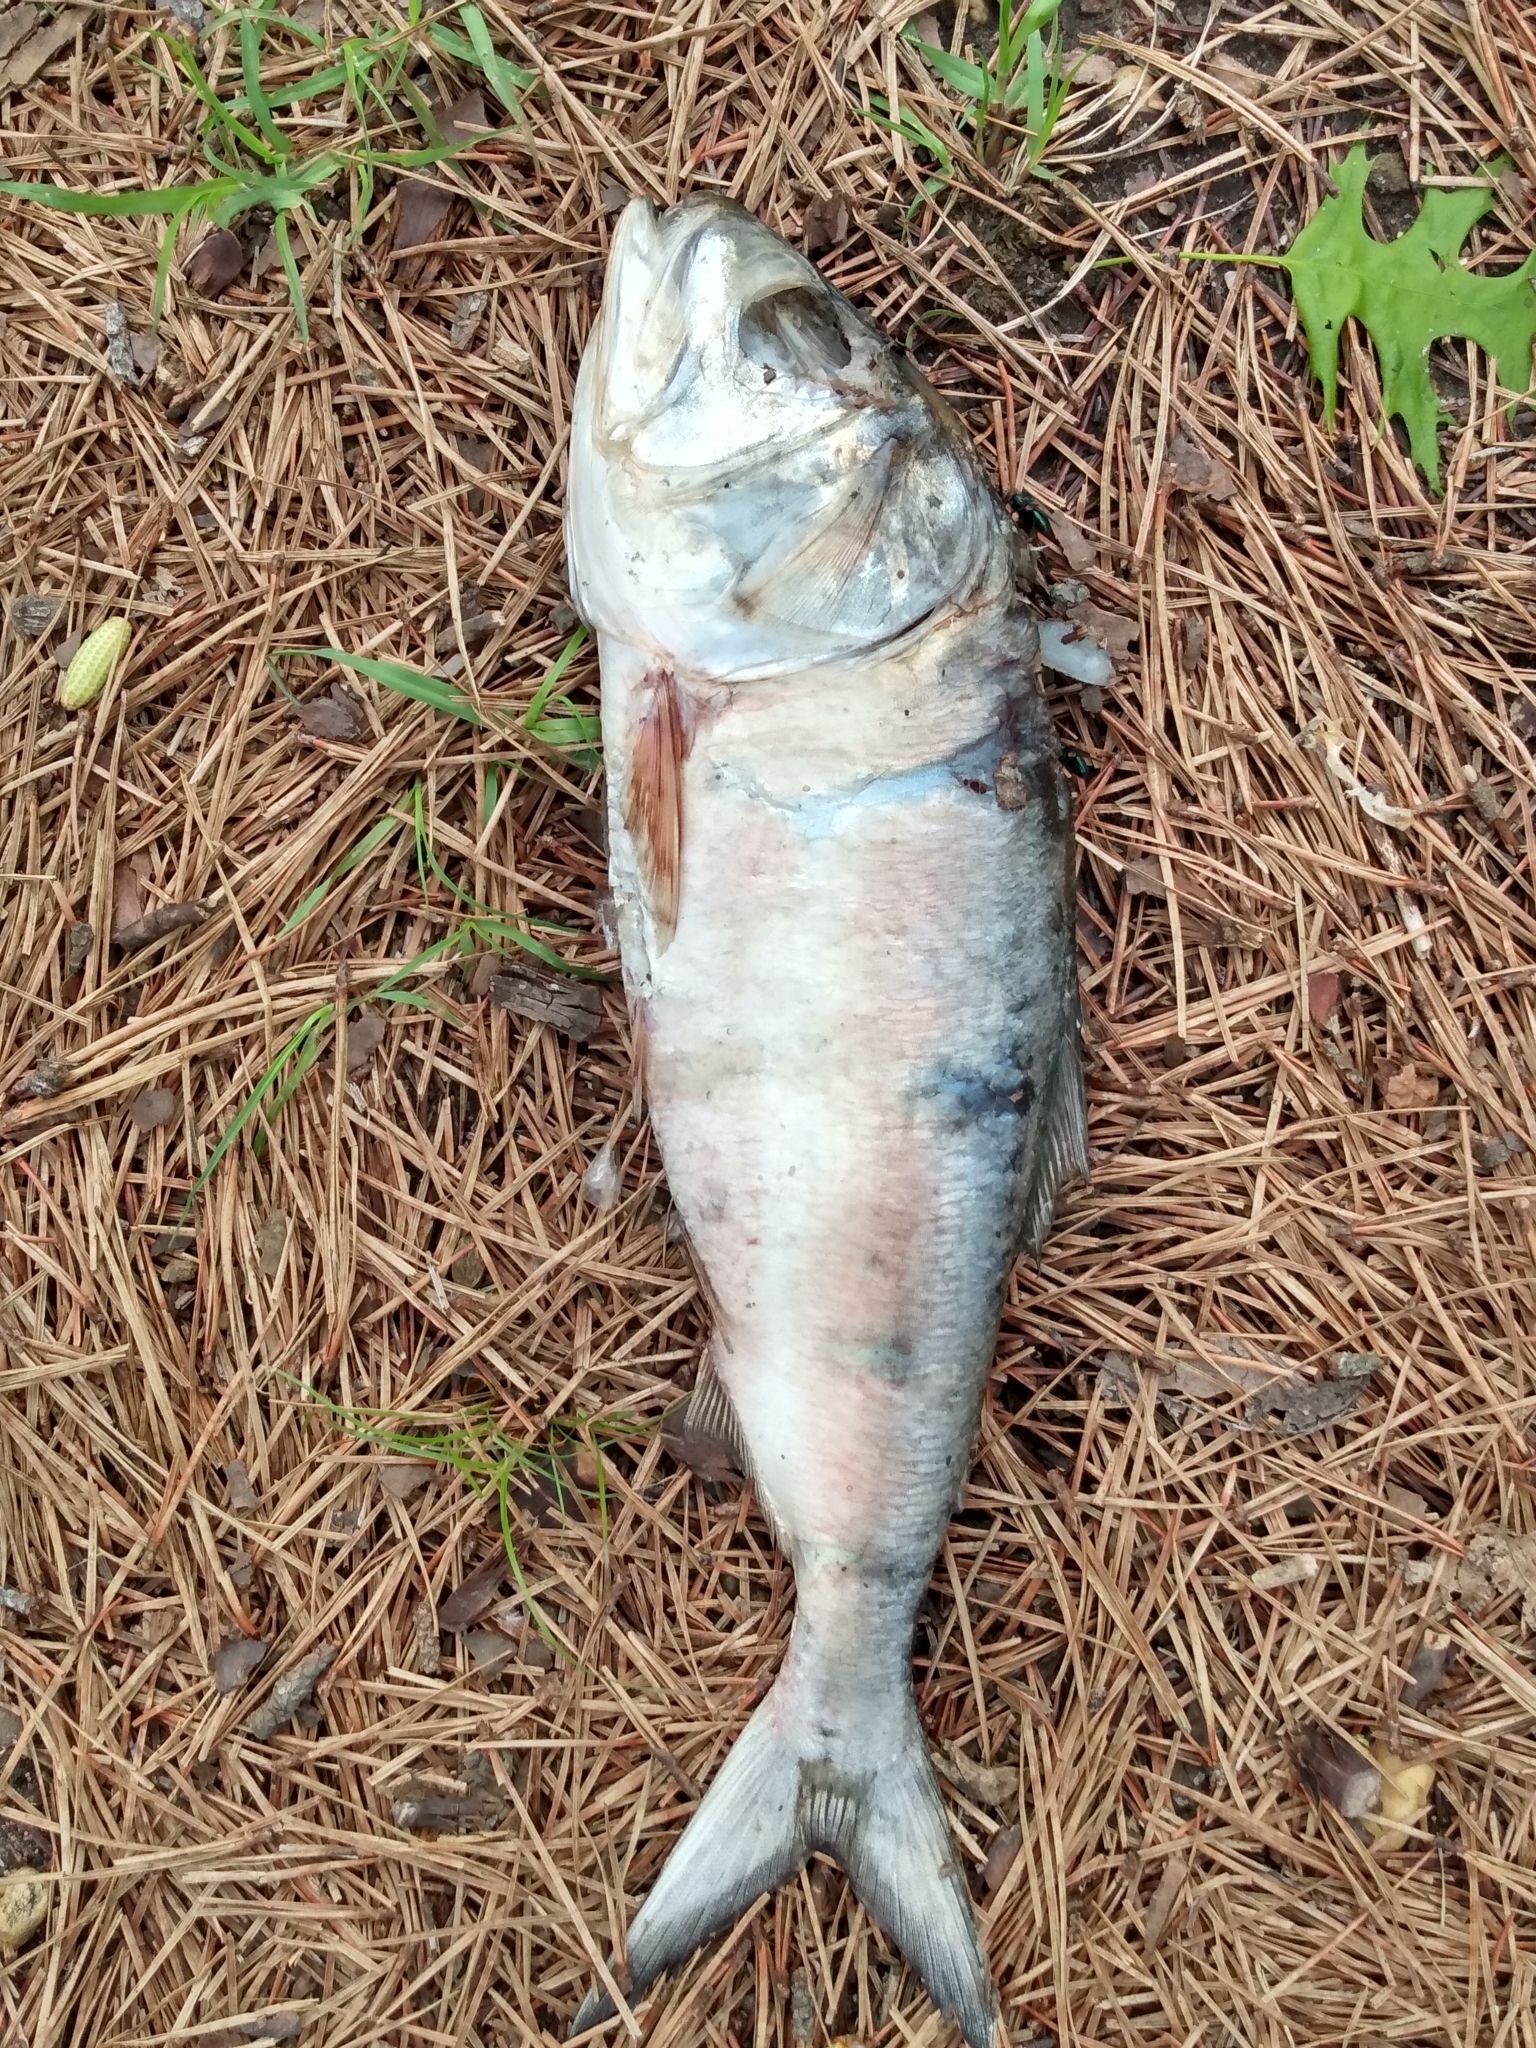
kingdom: Animalia
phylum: Chordata
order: Clupeiformes
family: Clupeidae
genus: Brevoortia
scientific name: Brevoortia tyrannus
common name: Atlantic menhaden
